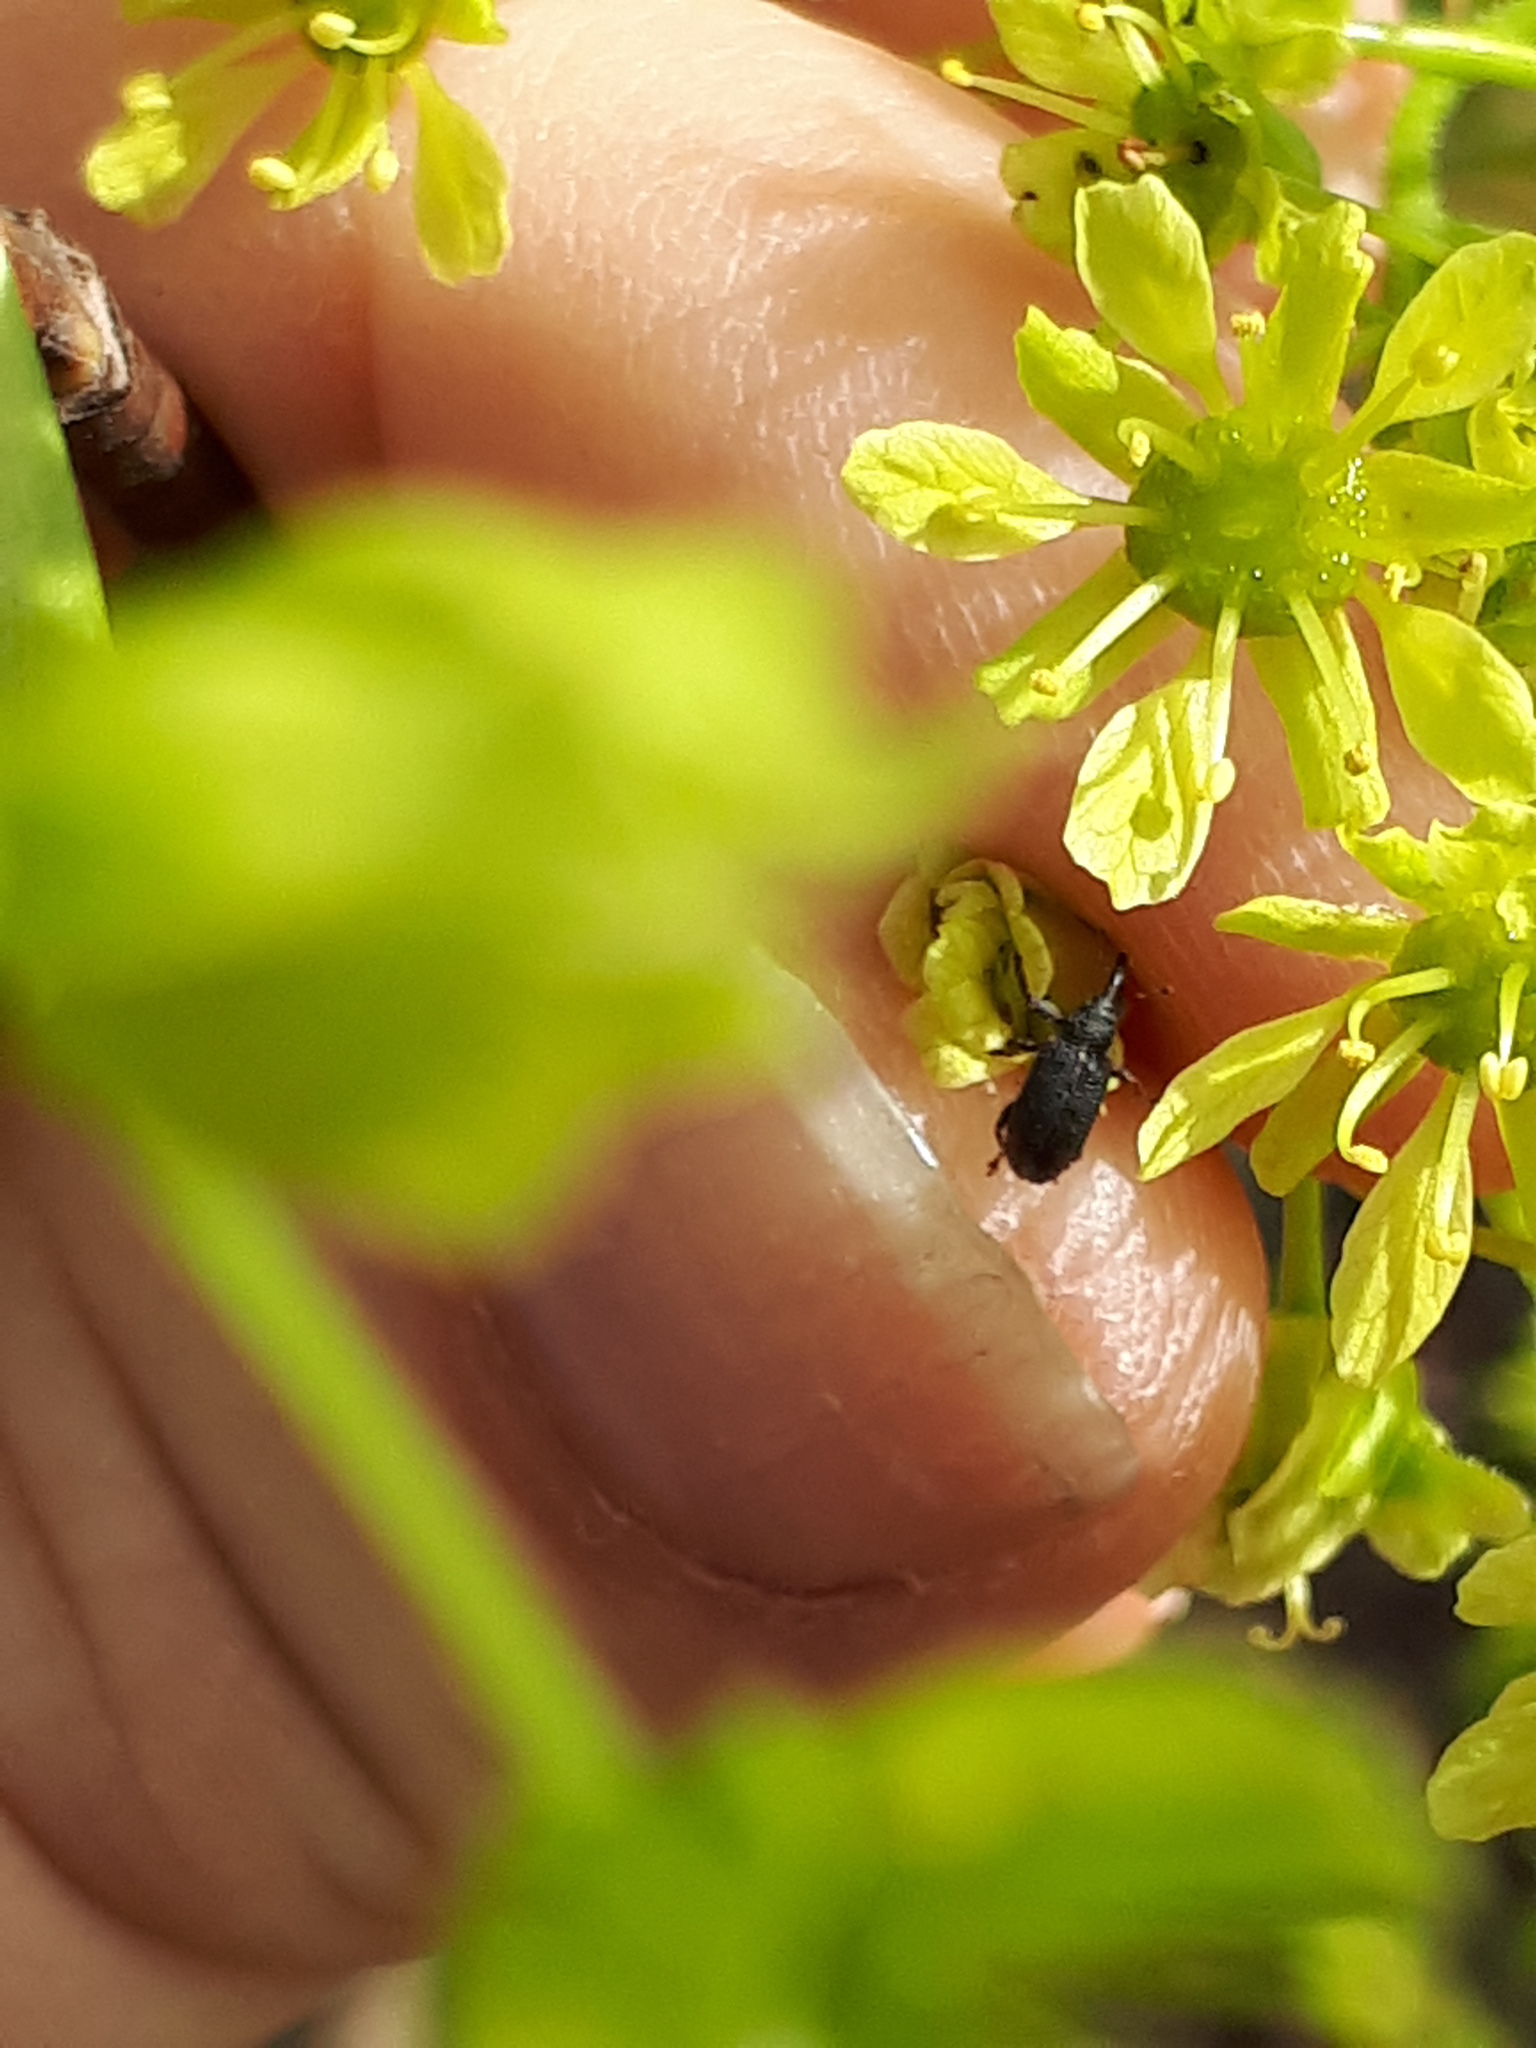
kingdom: Animalia
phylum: Arthropoda
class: Insecta
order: Coleoptera
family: Curculionidae
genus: Bradybatus
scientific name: Bradybatus kellneri
